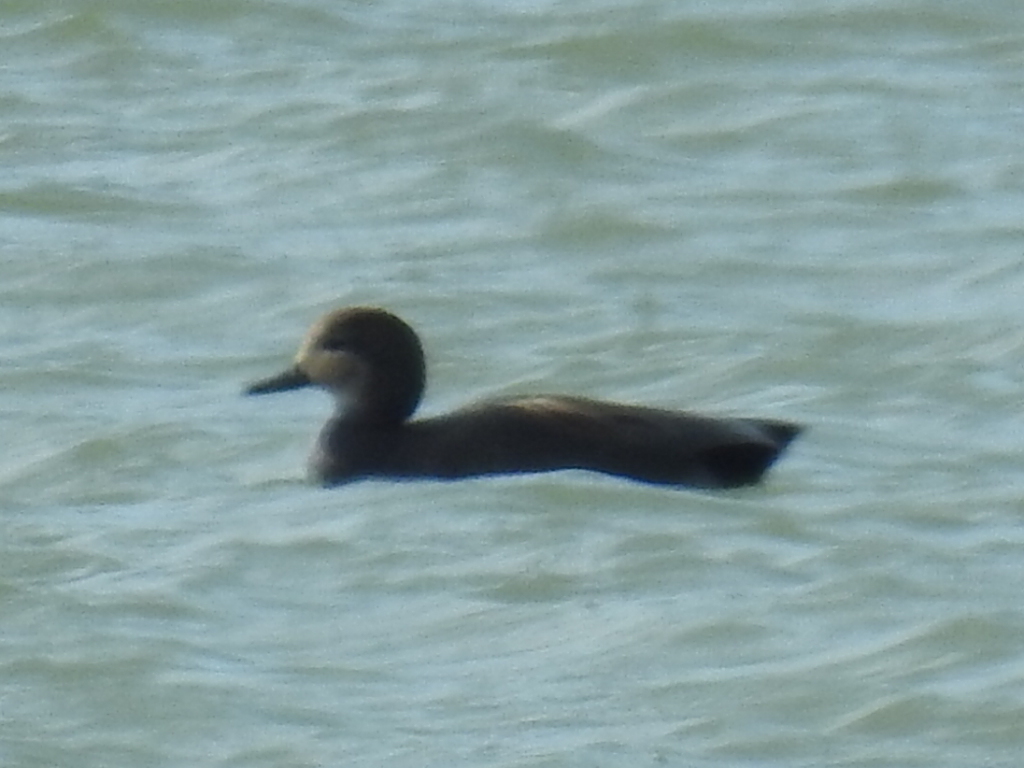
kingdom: Animalia
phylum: Chordata
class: Aves
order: Anseriformes
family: Anatidae
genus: Mareca
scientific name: Mareca strepera
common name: Gadwall
